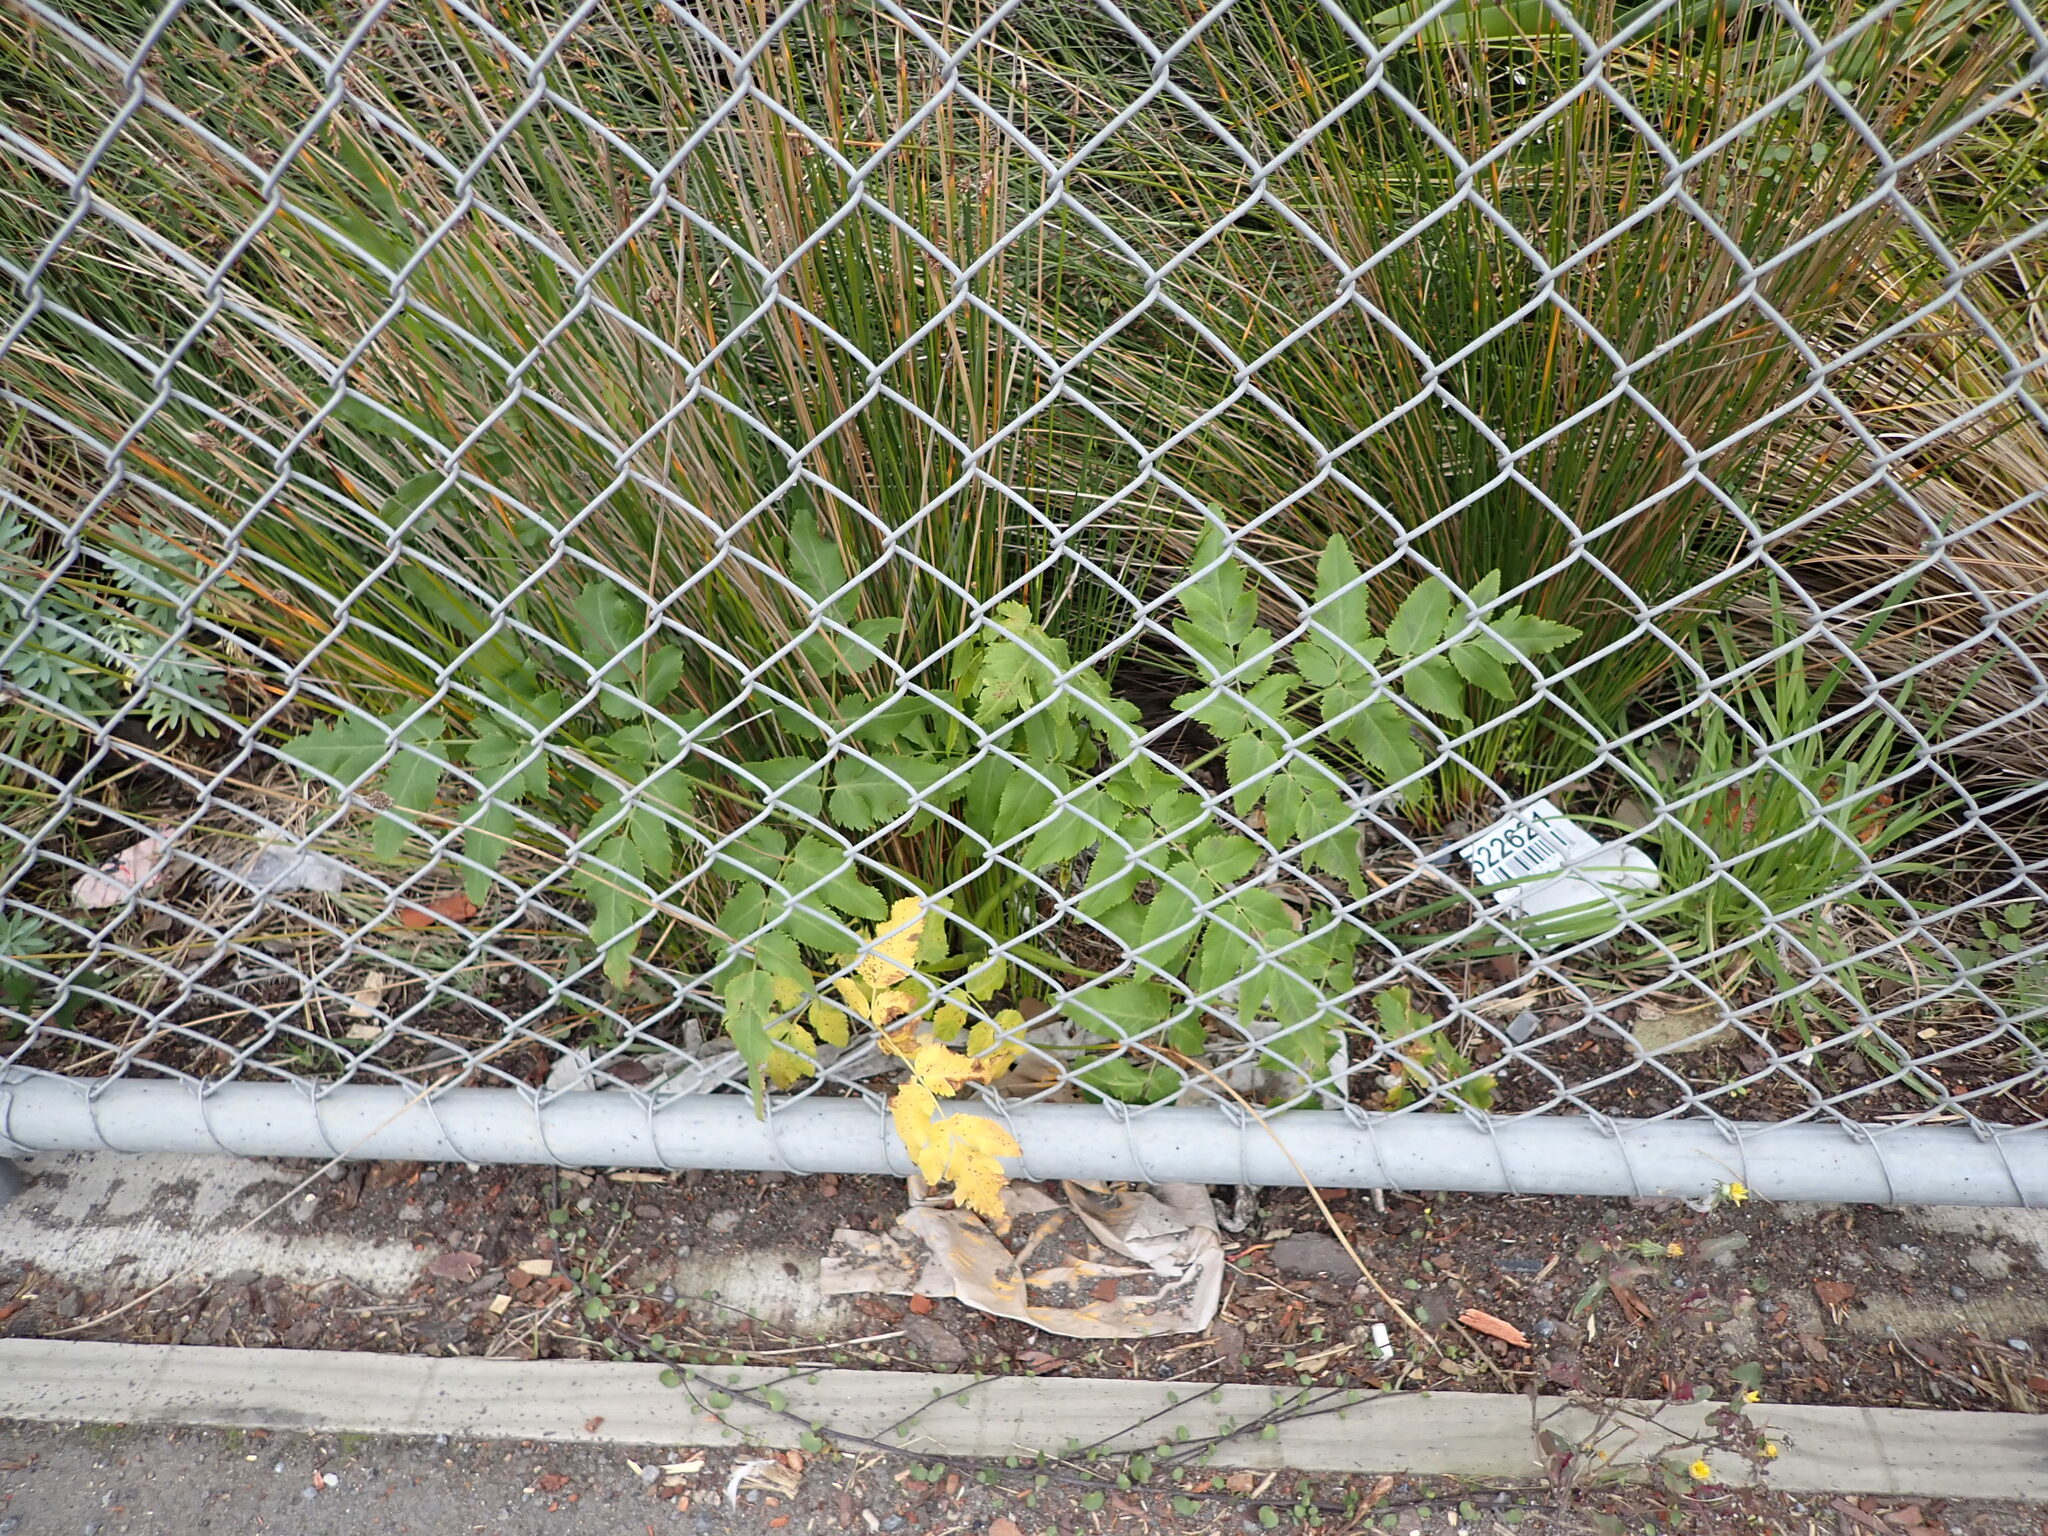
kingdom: Plantae
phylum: Tracheophyta
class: Magnoliopsida
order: Apiales
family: Apiaceae
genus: Daucus
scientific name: Daucus decipiens
